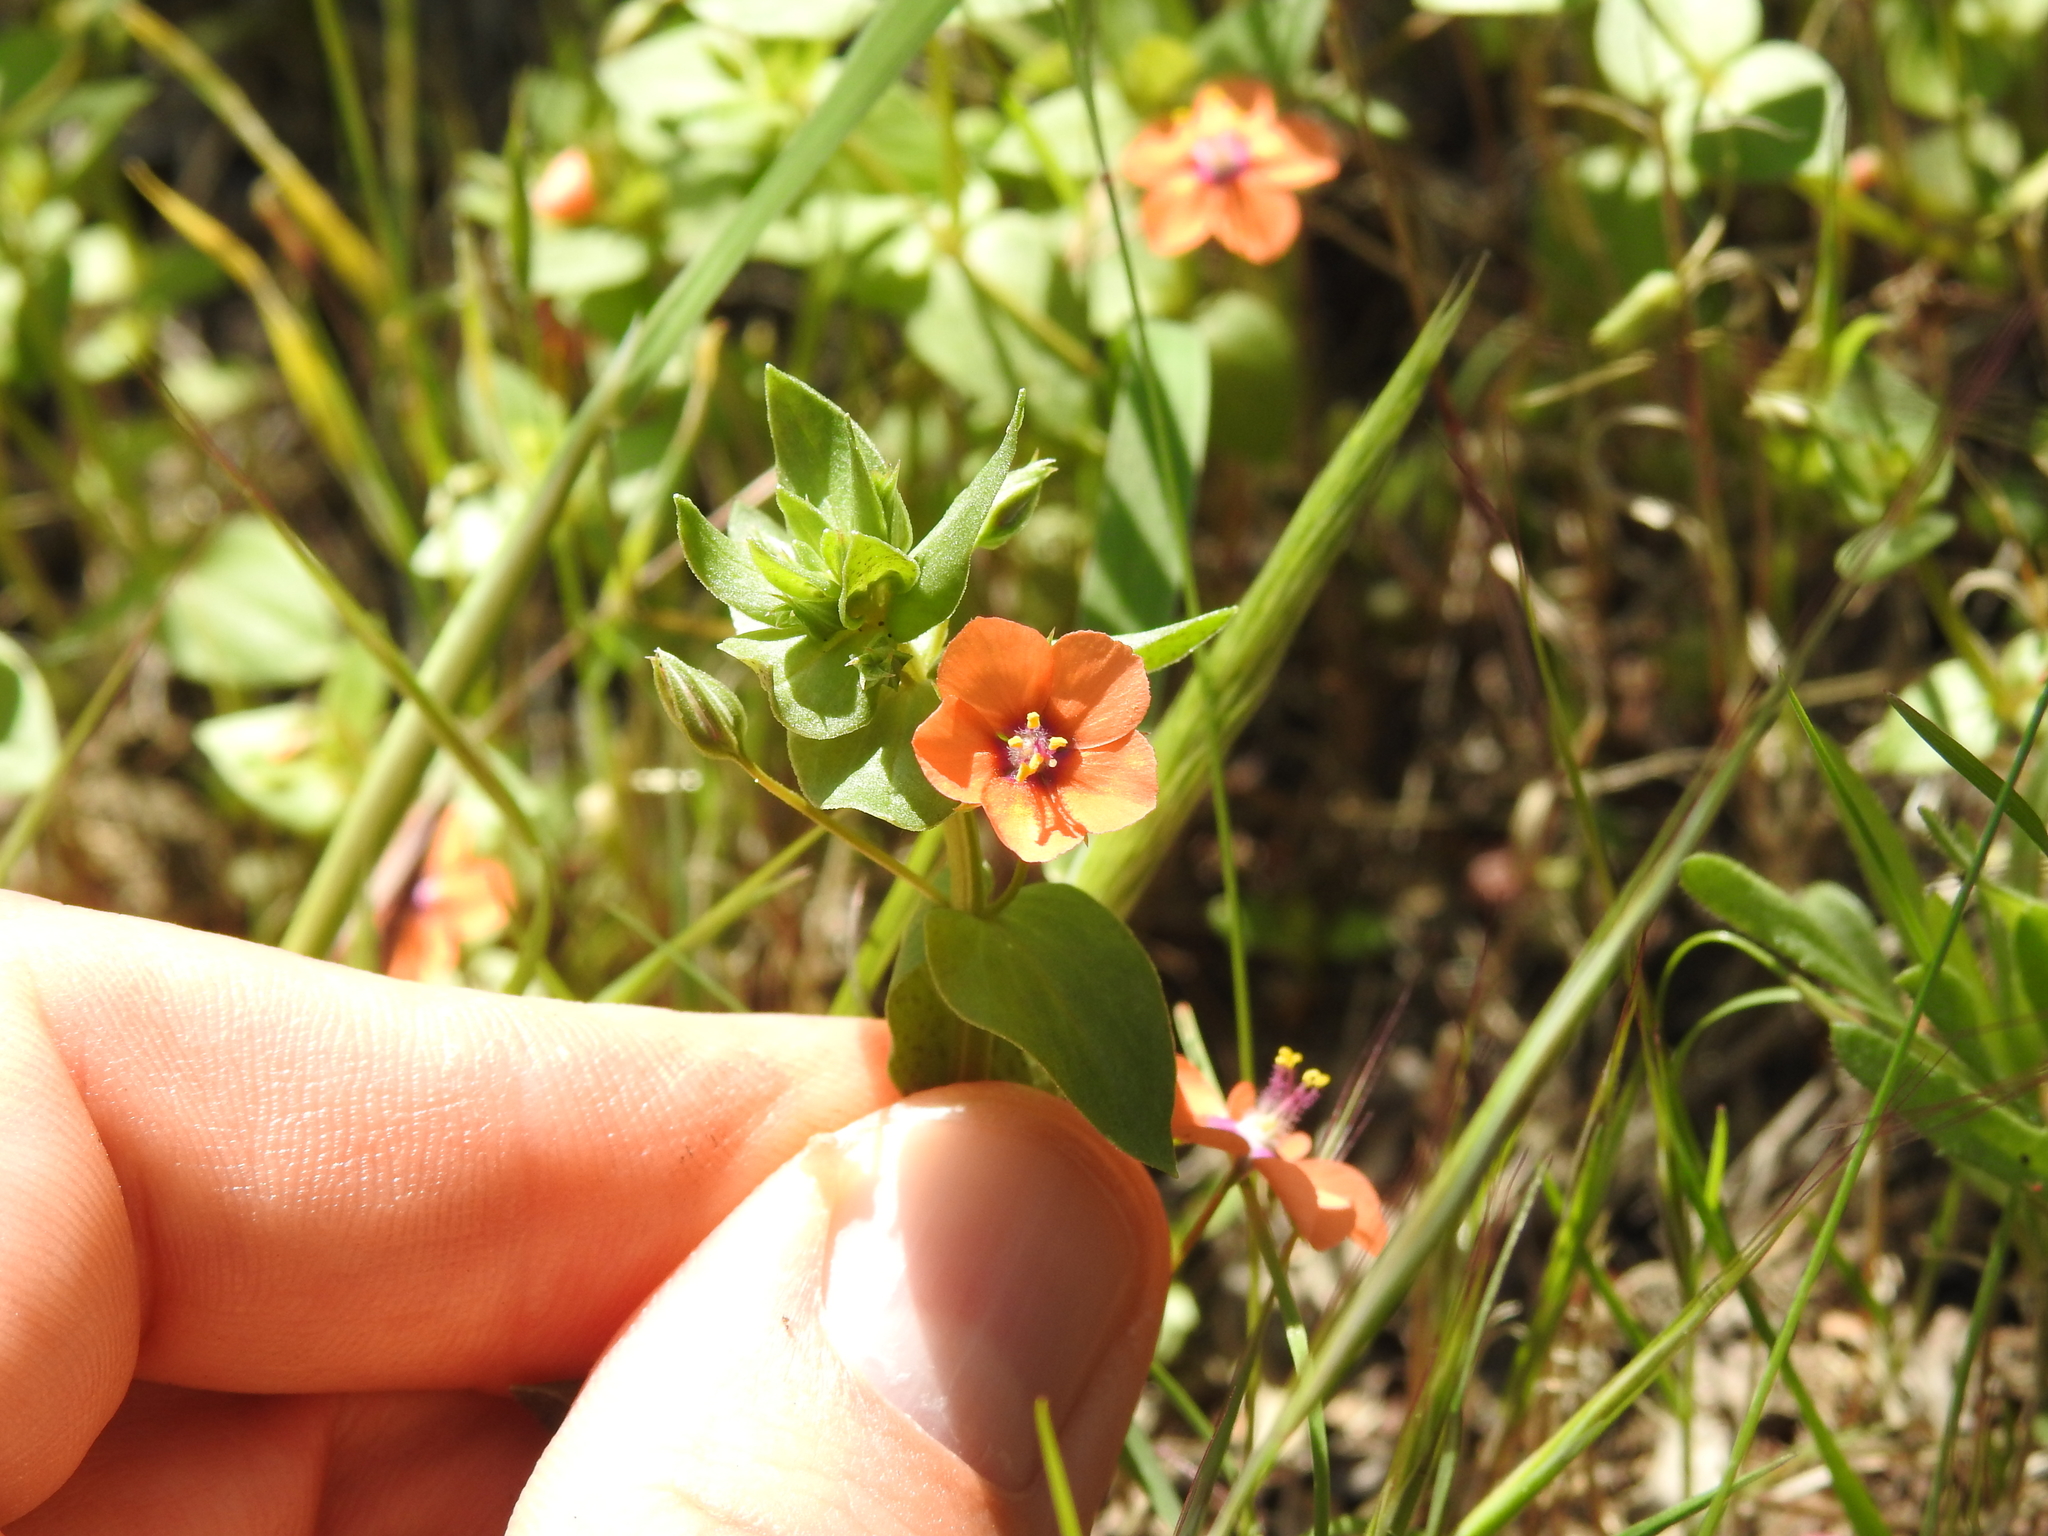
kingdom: Plantae
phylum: Tracheophyta
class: Magnoliopsida
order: Ericales
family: Primulaceae
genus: Lysimachia
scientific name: Lysimachia arvensis
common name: Scarlet pimpernel
